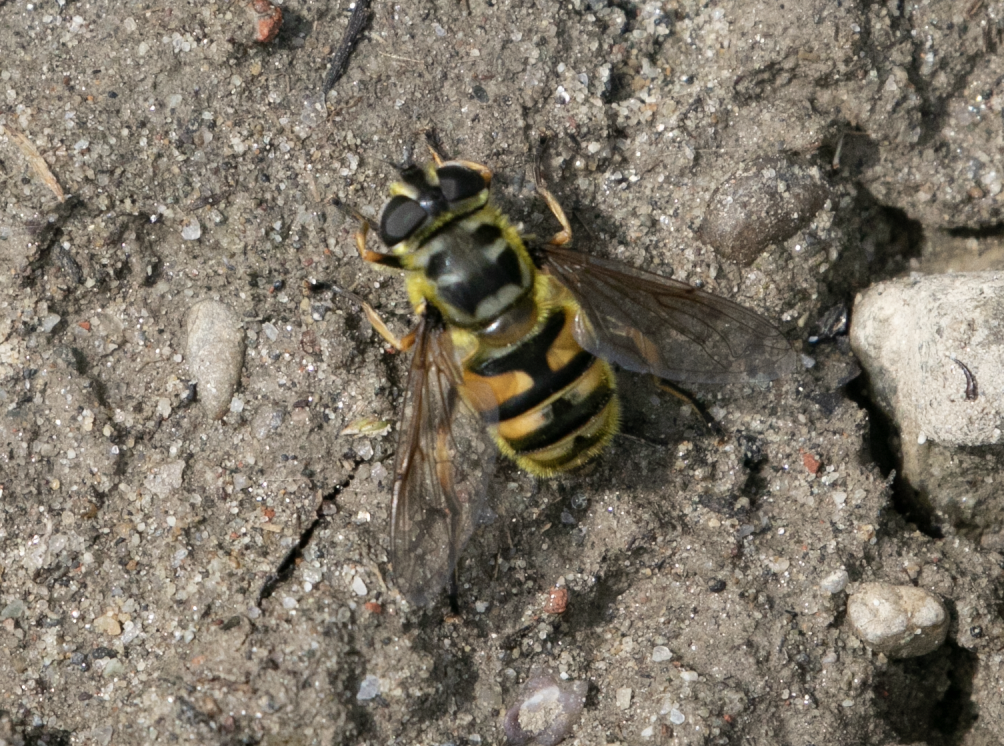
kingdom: Animalia
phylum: Arthropoda
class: Insecta
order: Diptera
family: Syrphidae
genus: Myathropa
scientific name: Myathropa florea
